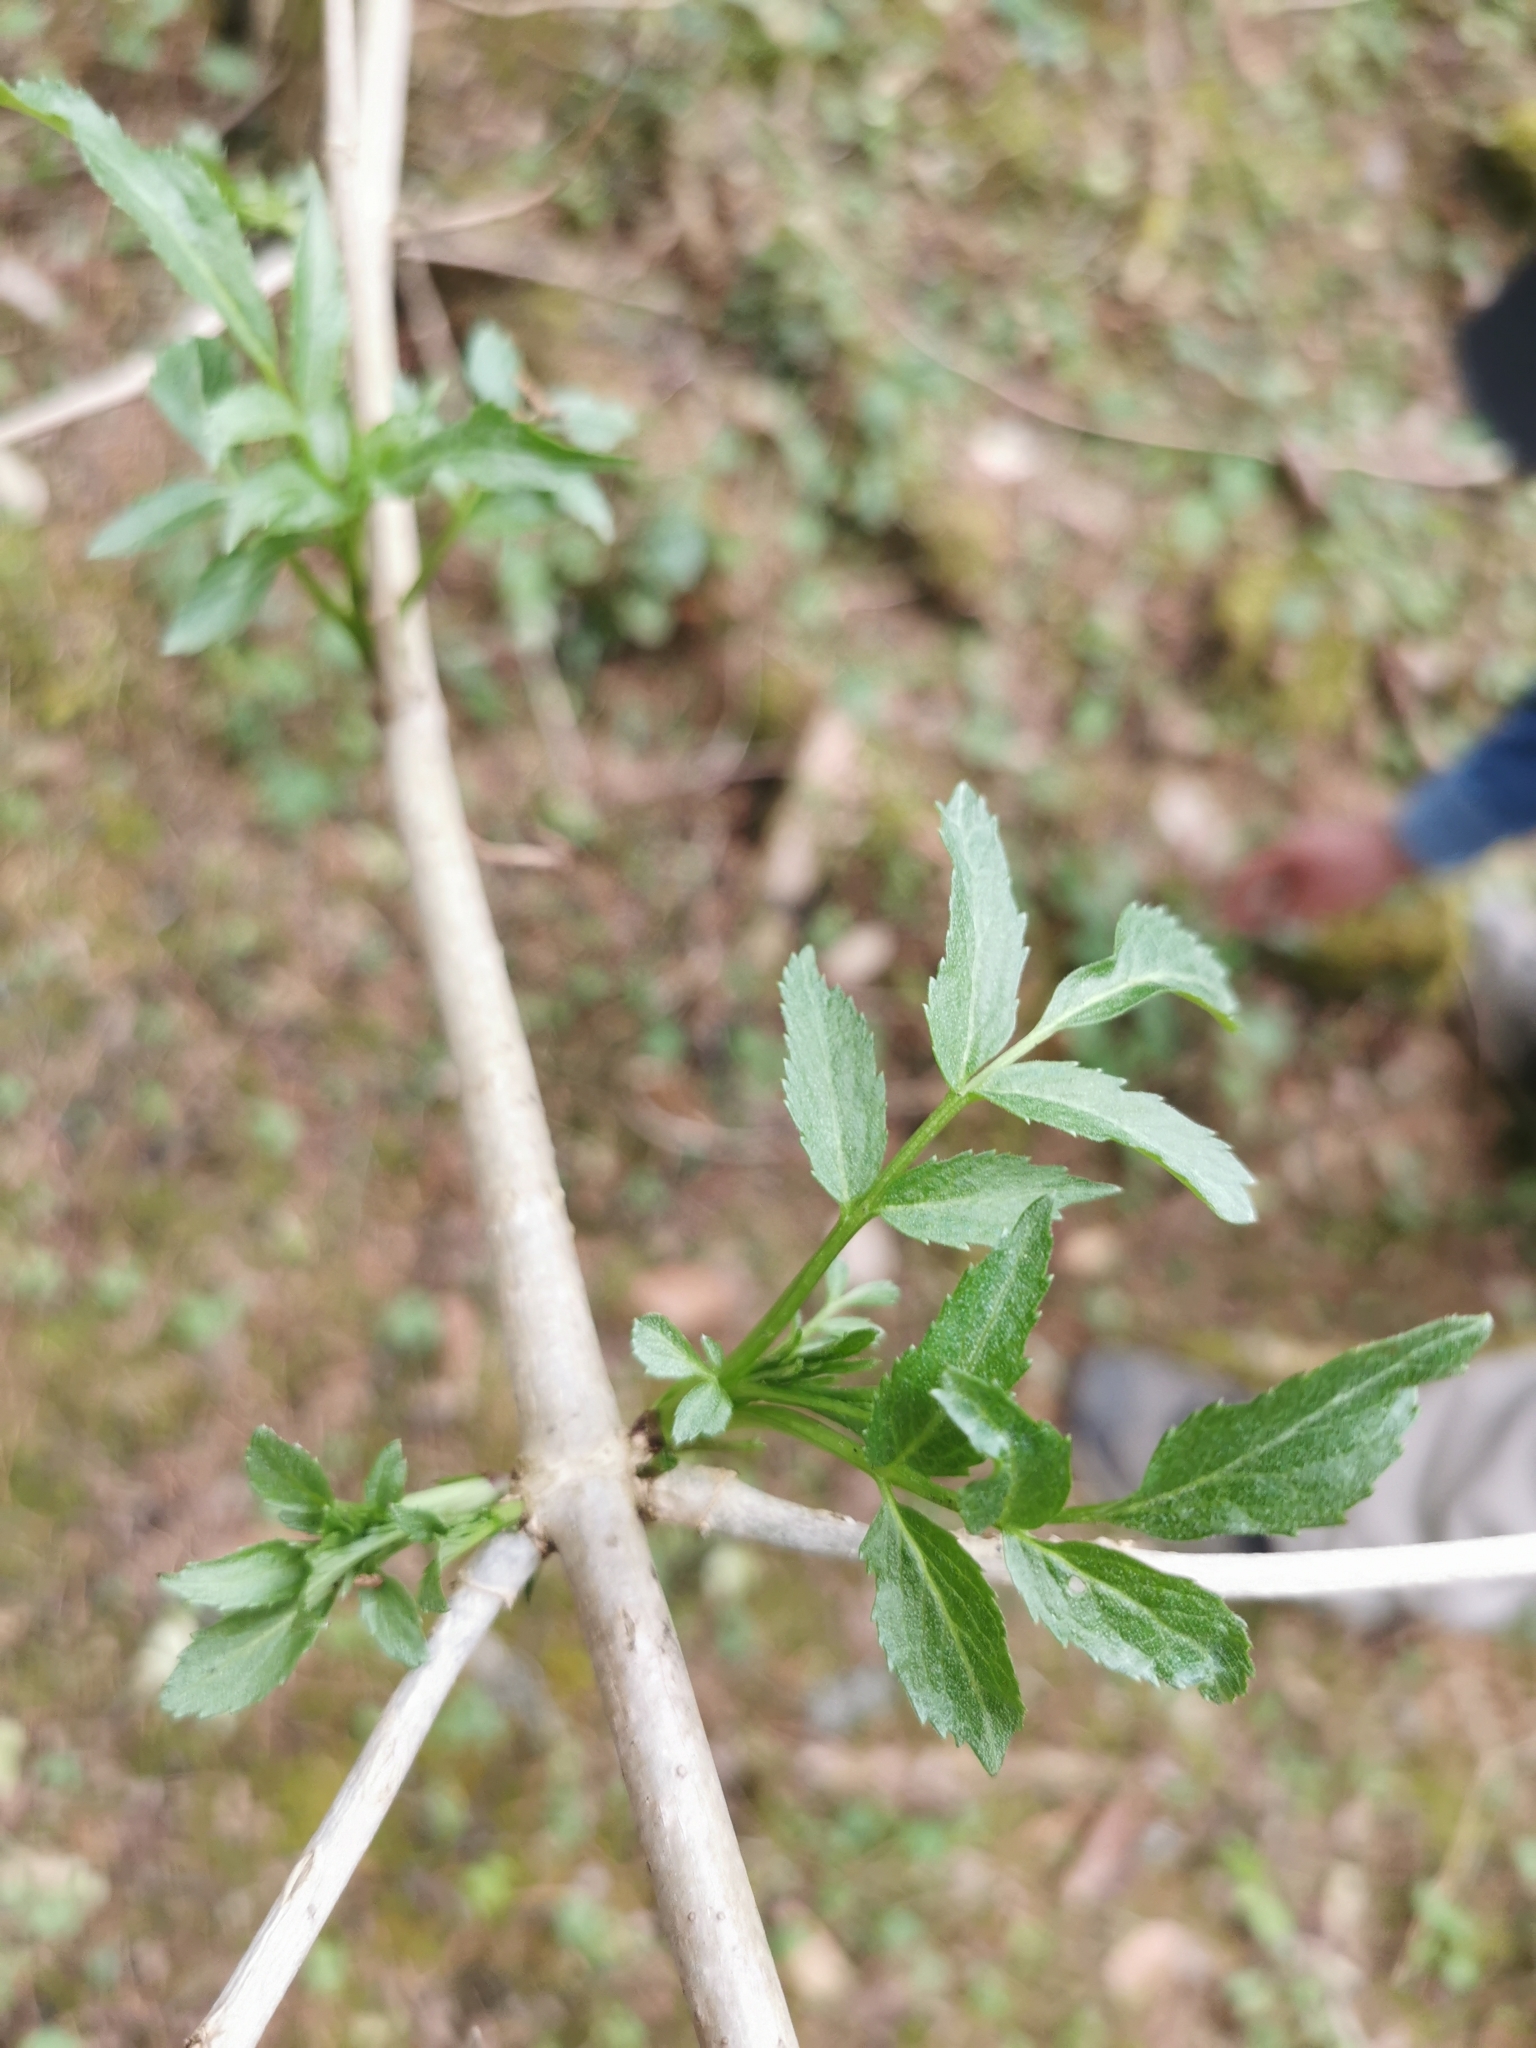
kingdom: Plantae
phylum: Tracheophyta
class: Magnoliopsida
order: Dipsacales
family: Viburnaceae
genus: Sambucus
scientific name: Sambucus canadensis
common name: American elder
